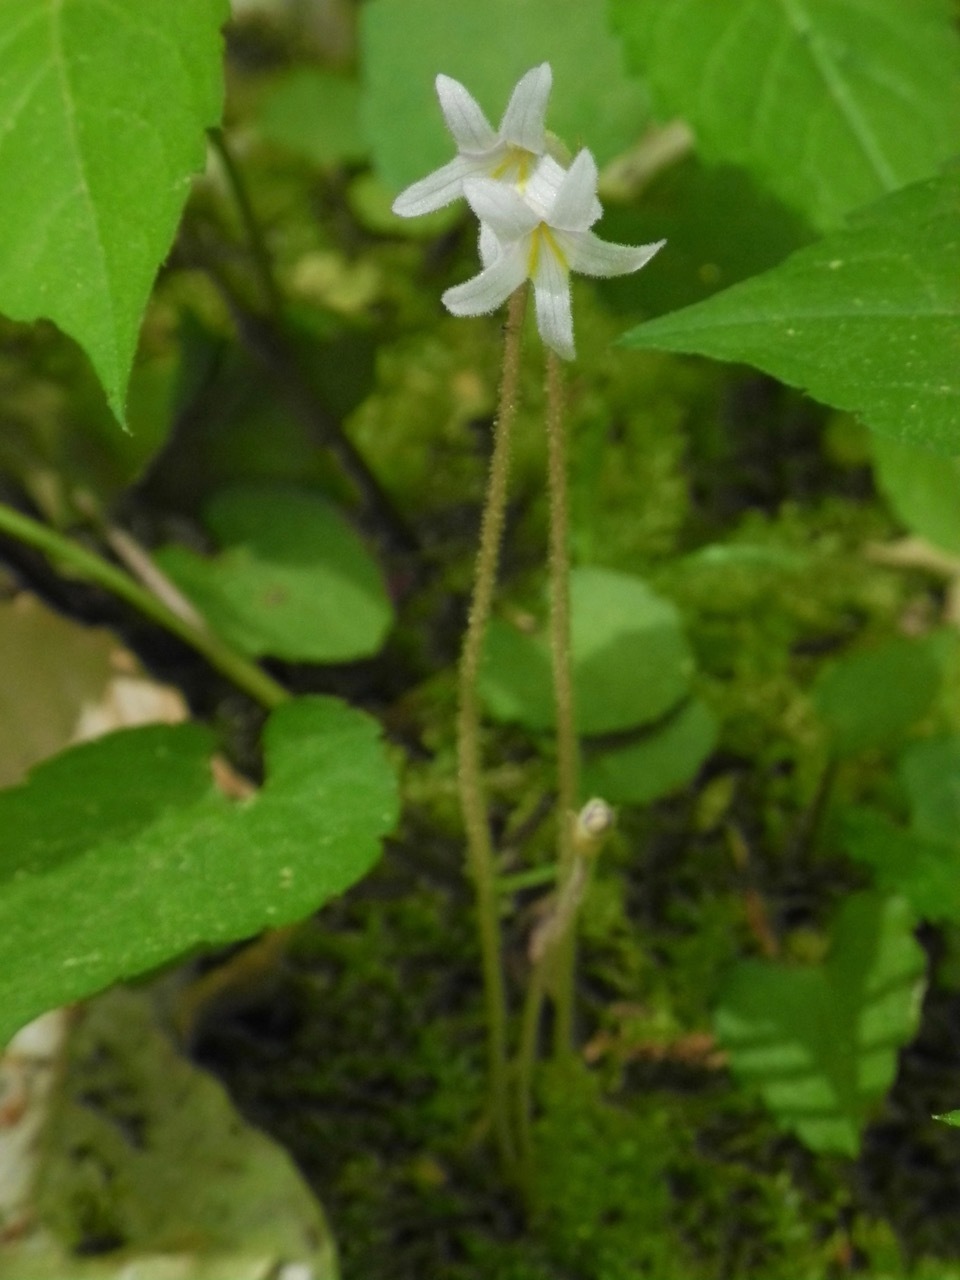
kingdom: Plantae
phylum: Tracheophyta
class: Magnoliopsida
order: Lamiales
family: Orobanchaceae
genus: Aphyllon
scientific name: Aphyllon uniflorum
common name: One-flowered broomrape
